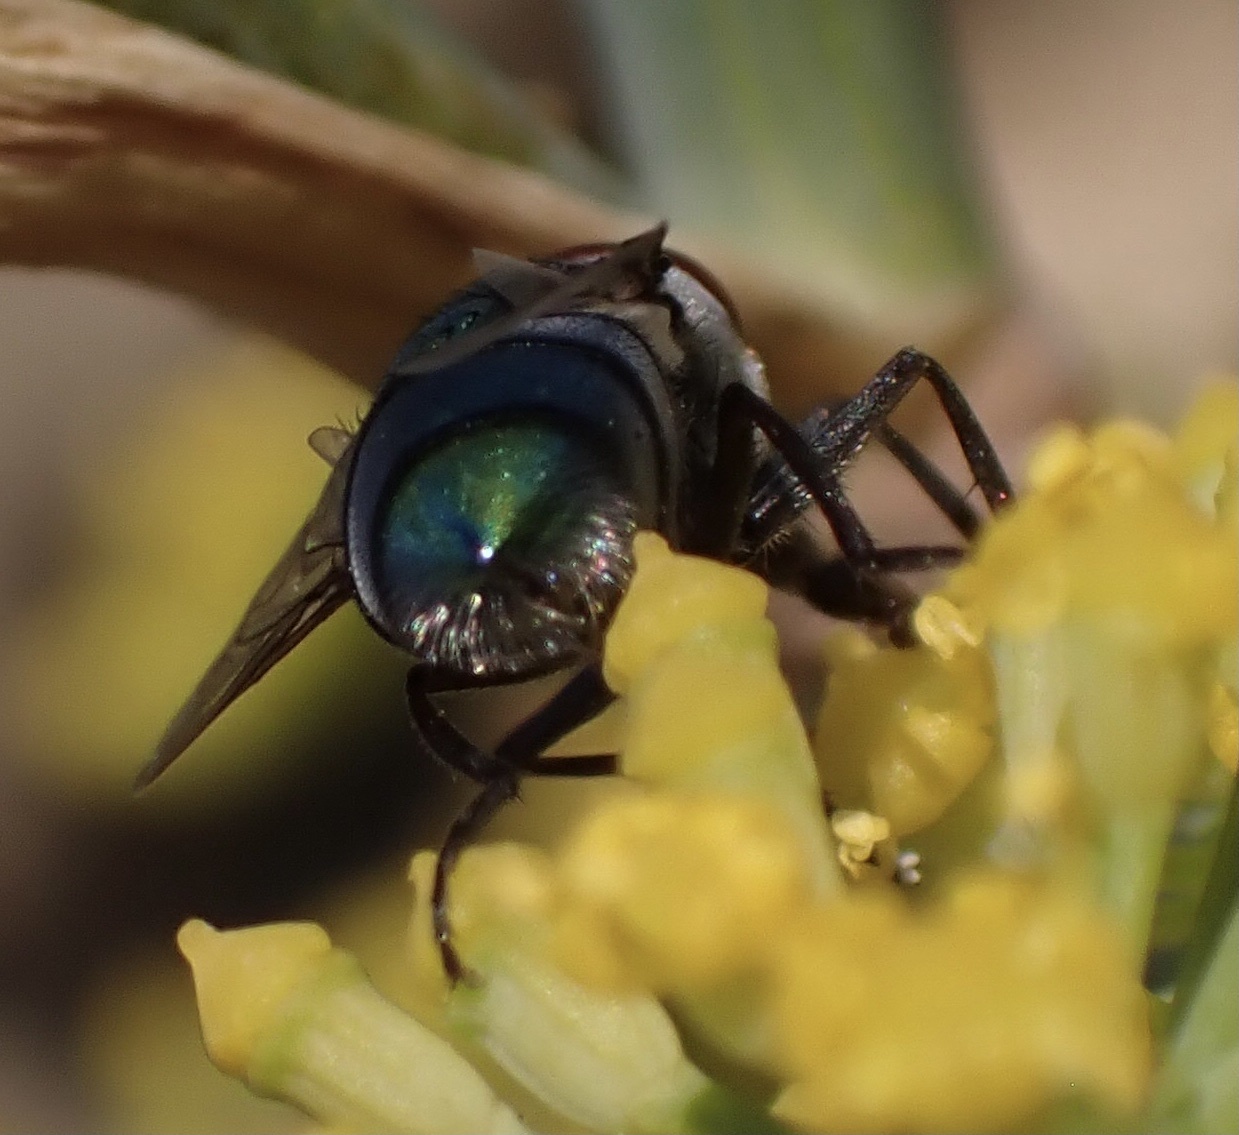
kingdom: Animalia
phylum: Arthropoda
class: Insecta
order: Diptera
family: Calliphoridae
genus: Chrysomya
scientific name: Chrysomya albiceps
